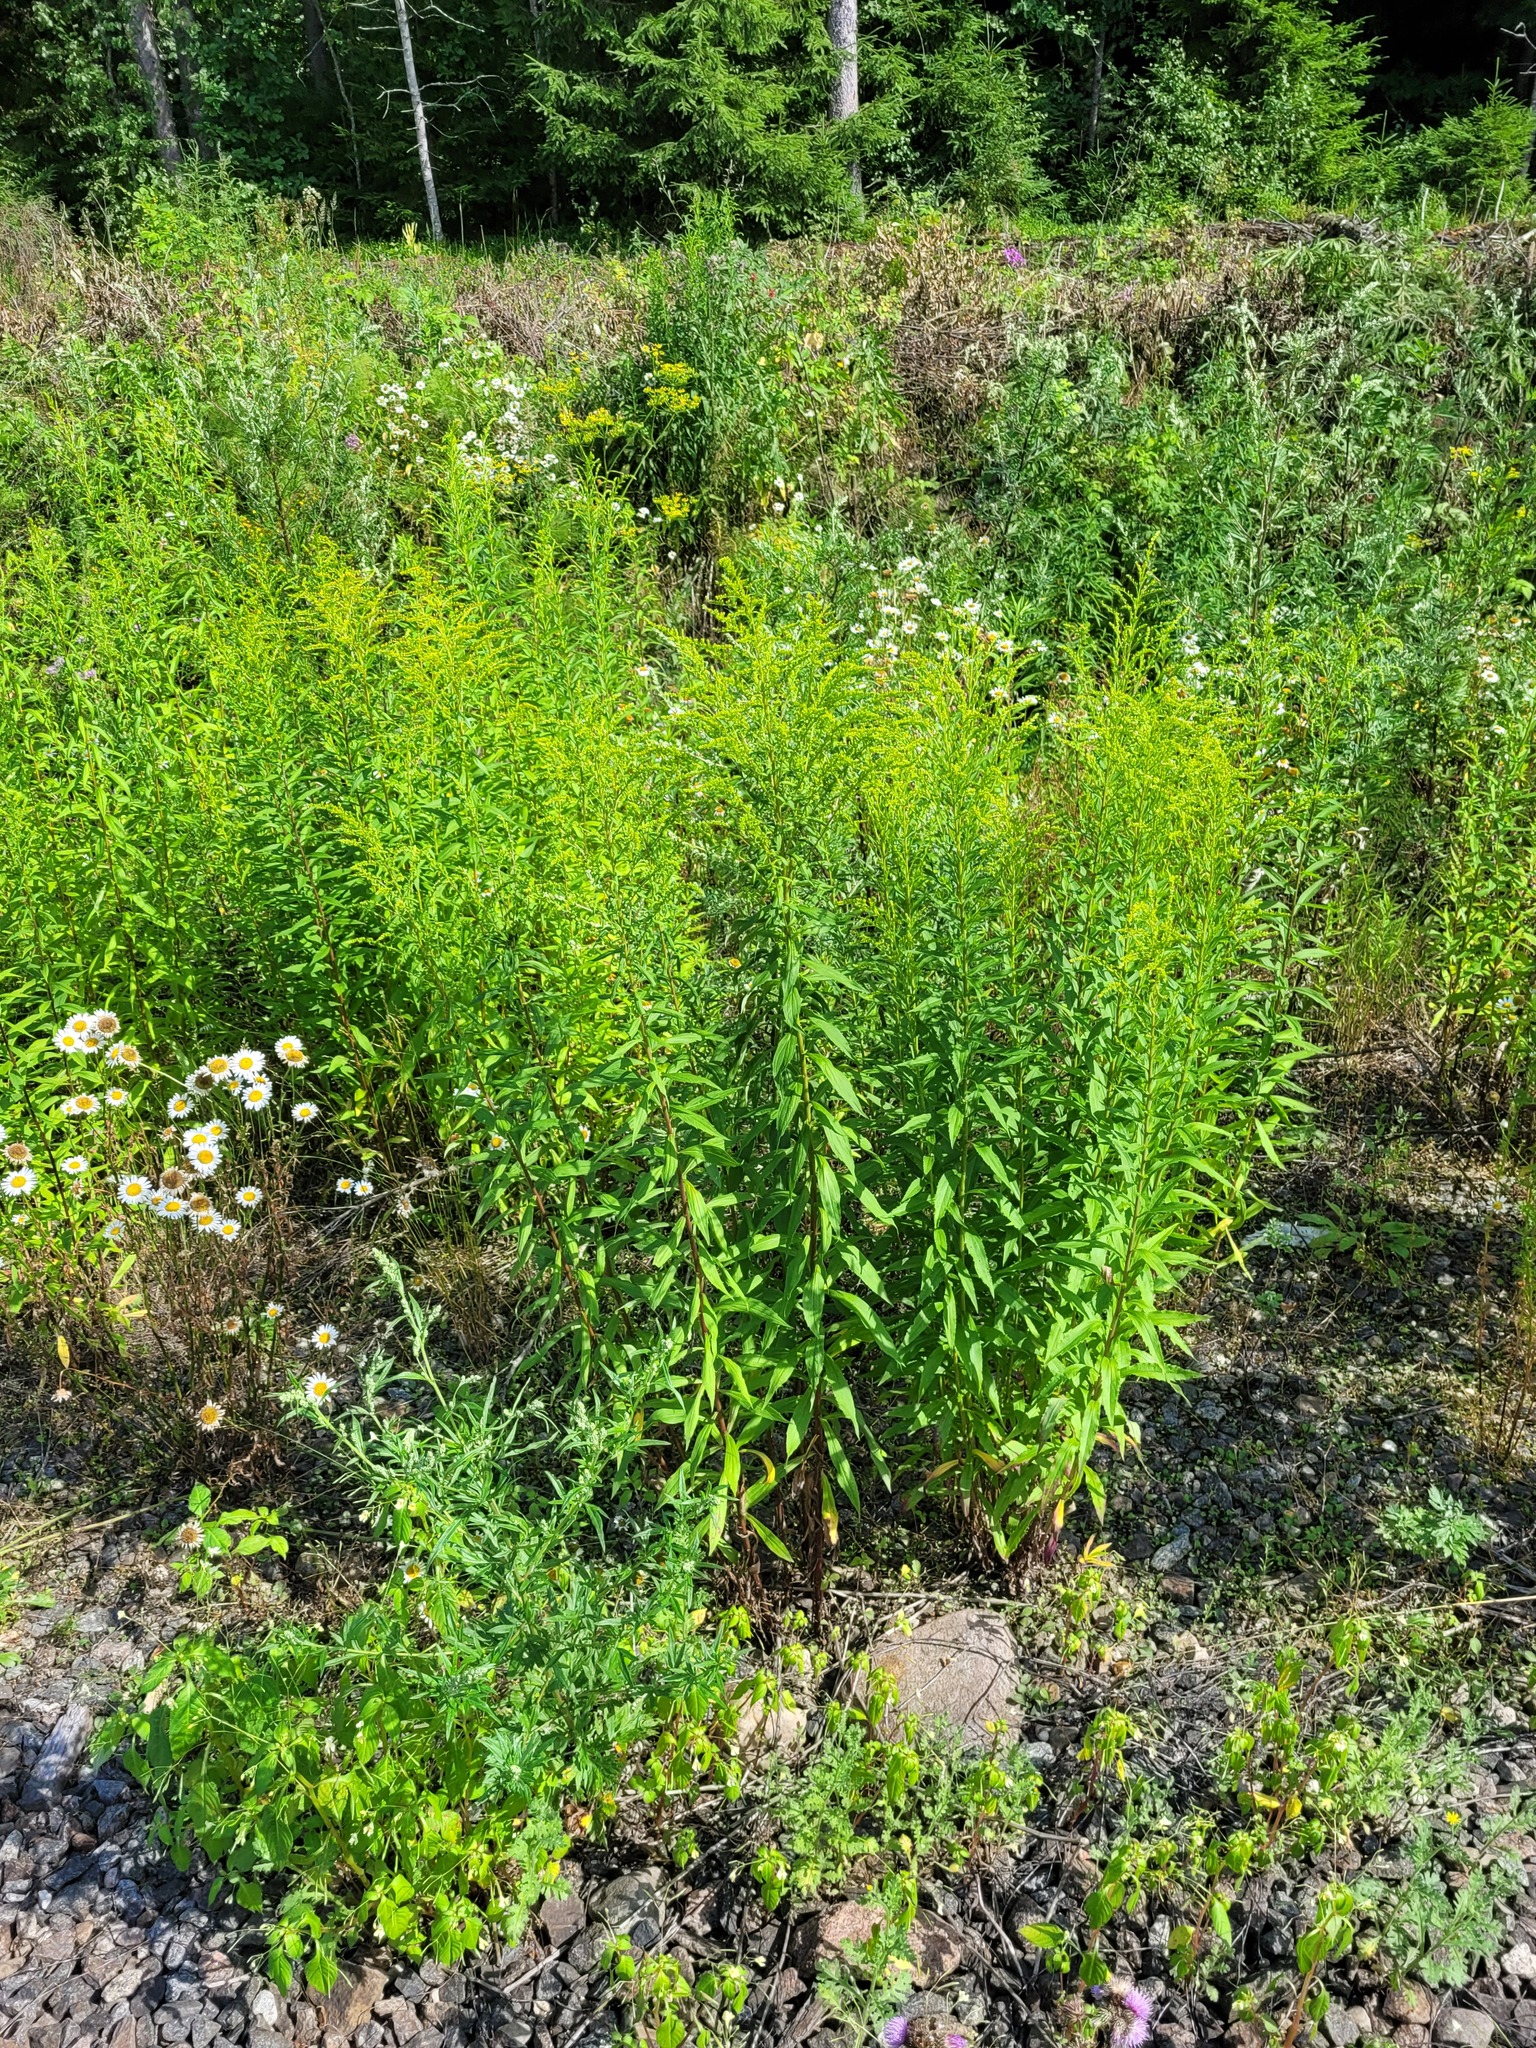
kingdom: Plantae
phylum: Tracheophyta
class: Magnoliopsida
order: Asterales
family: Asteraceae
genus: Solidago
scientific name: Solidago canadensis
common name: Canada goldenrod
